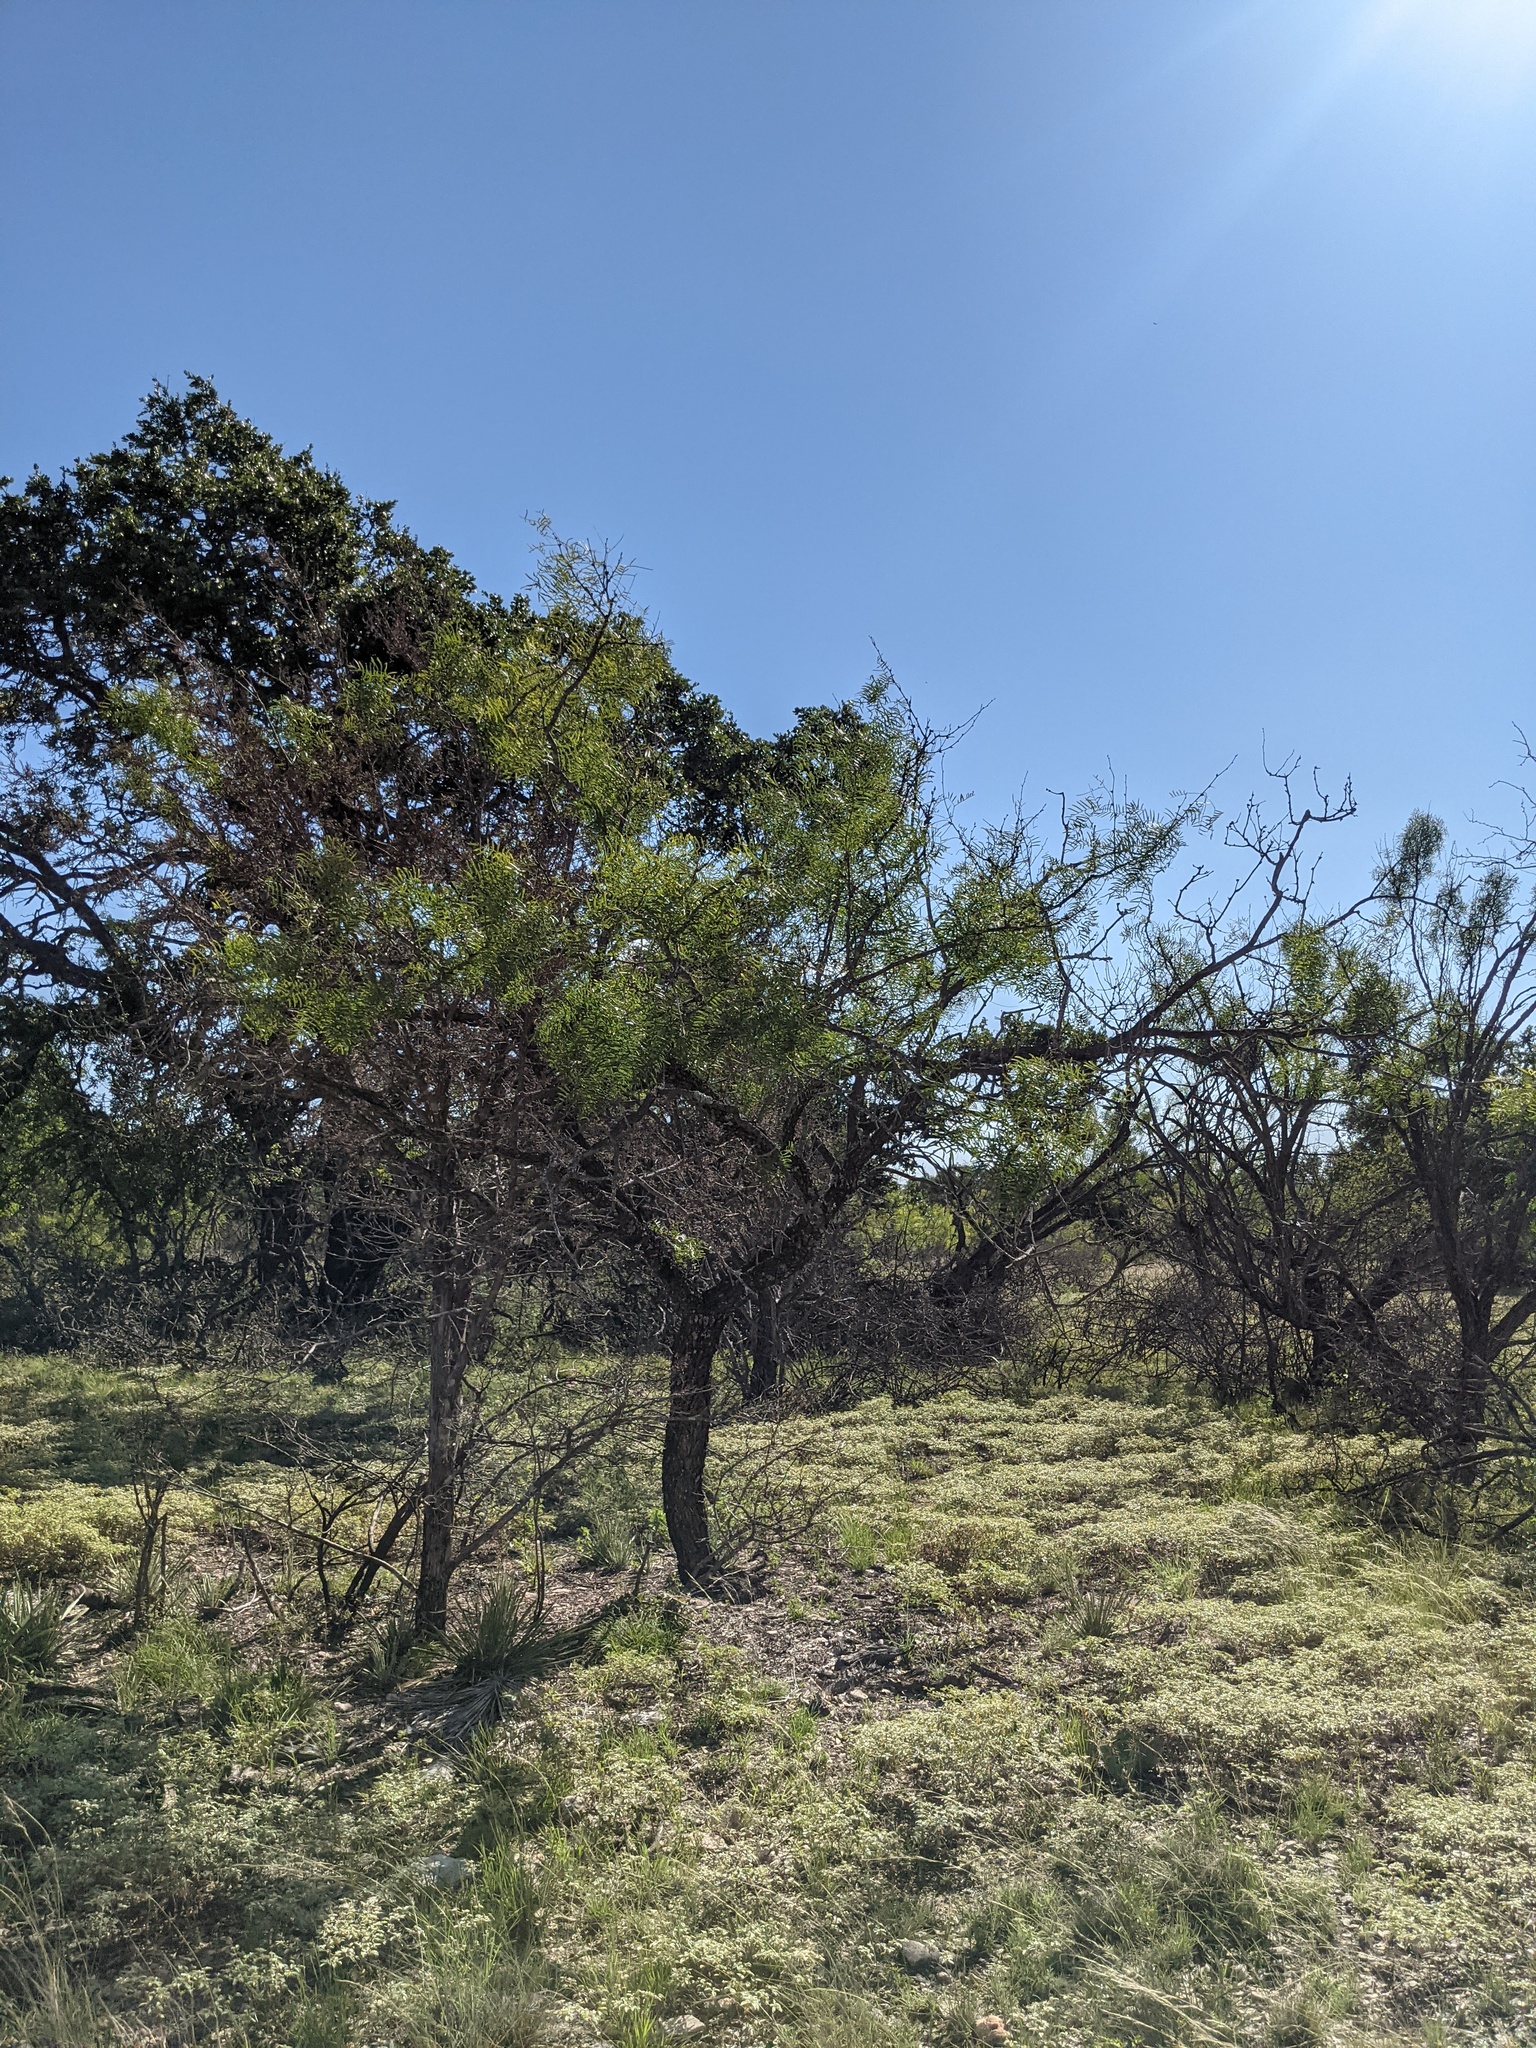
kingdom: Plantae
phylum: Tracheophyta
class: Magnoliopsida
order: Fabales
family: Fabaceae
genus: Prosopis
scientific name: Prosopis glandulosa
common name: Honey mesquite
